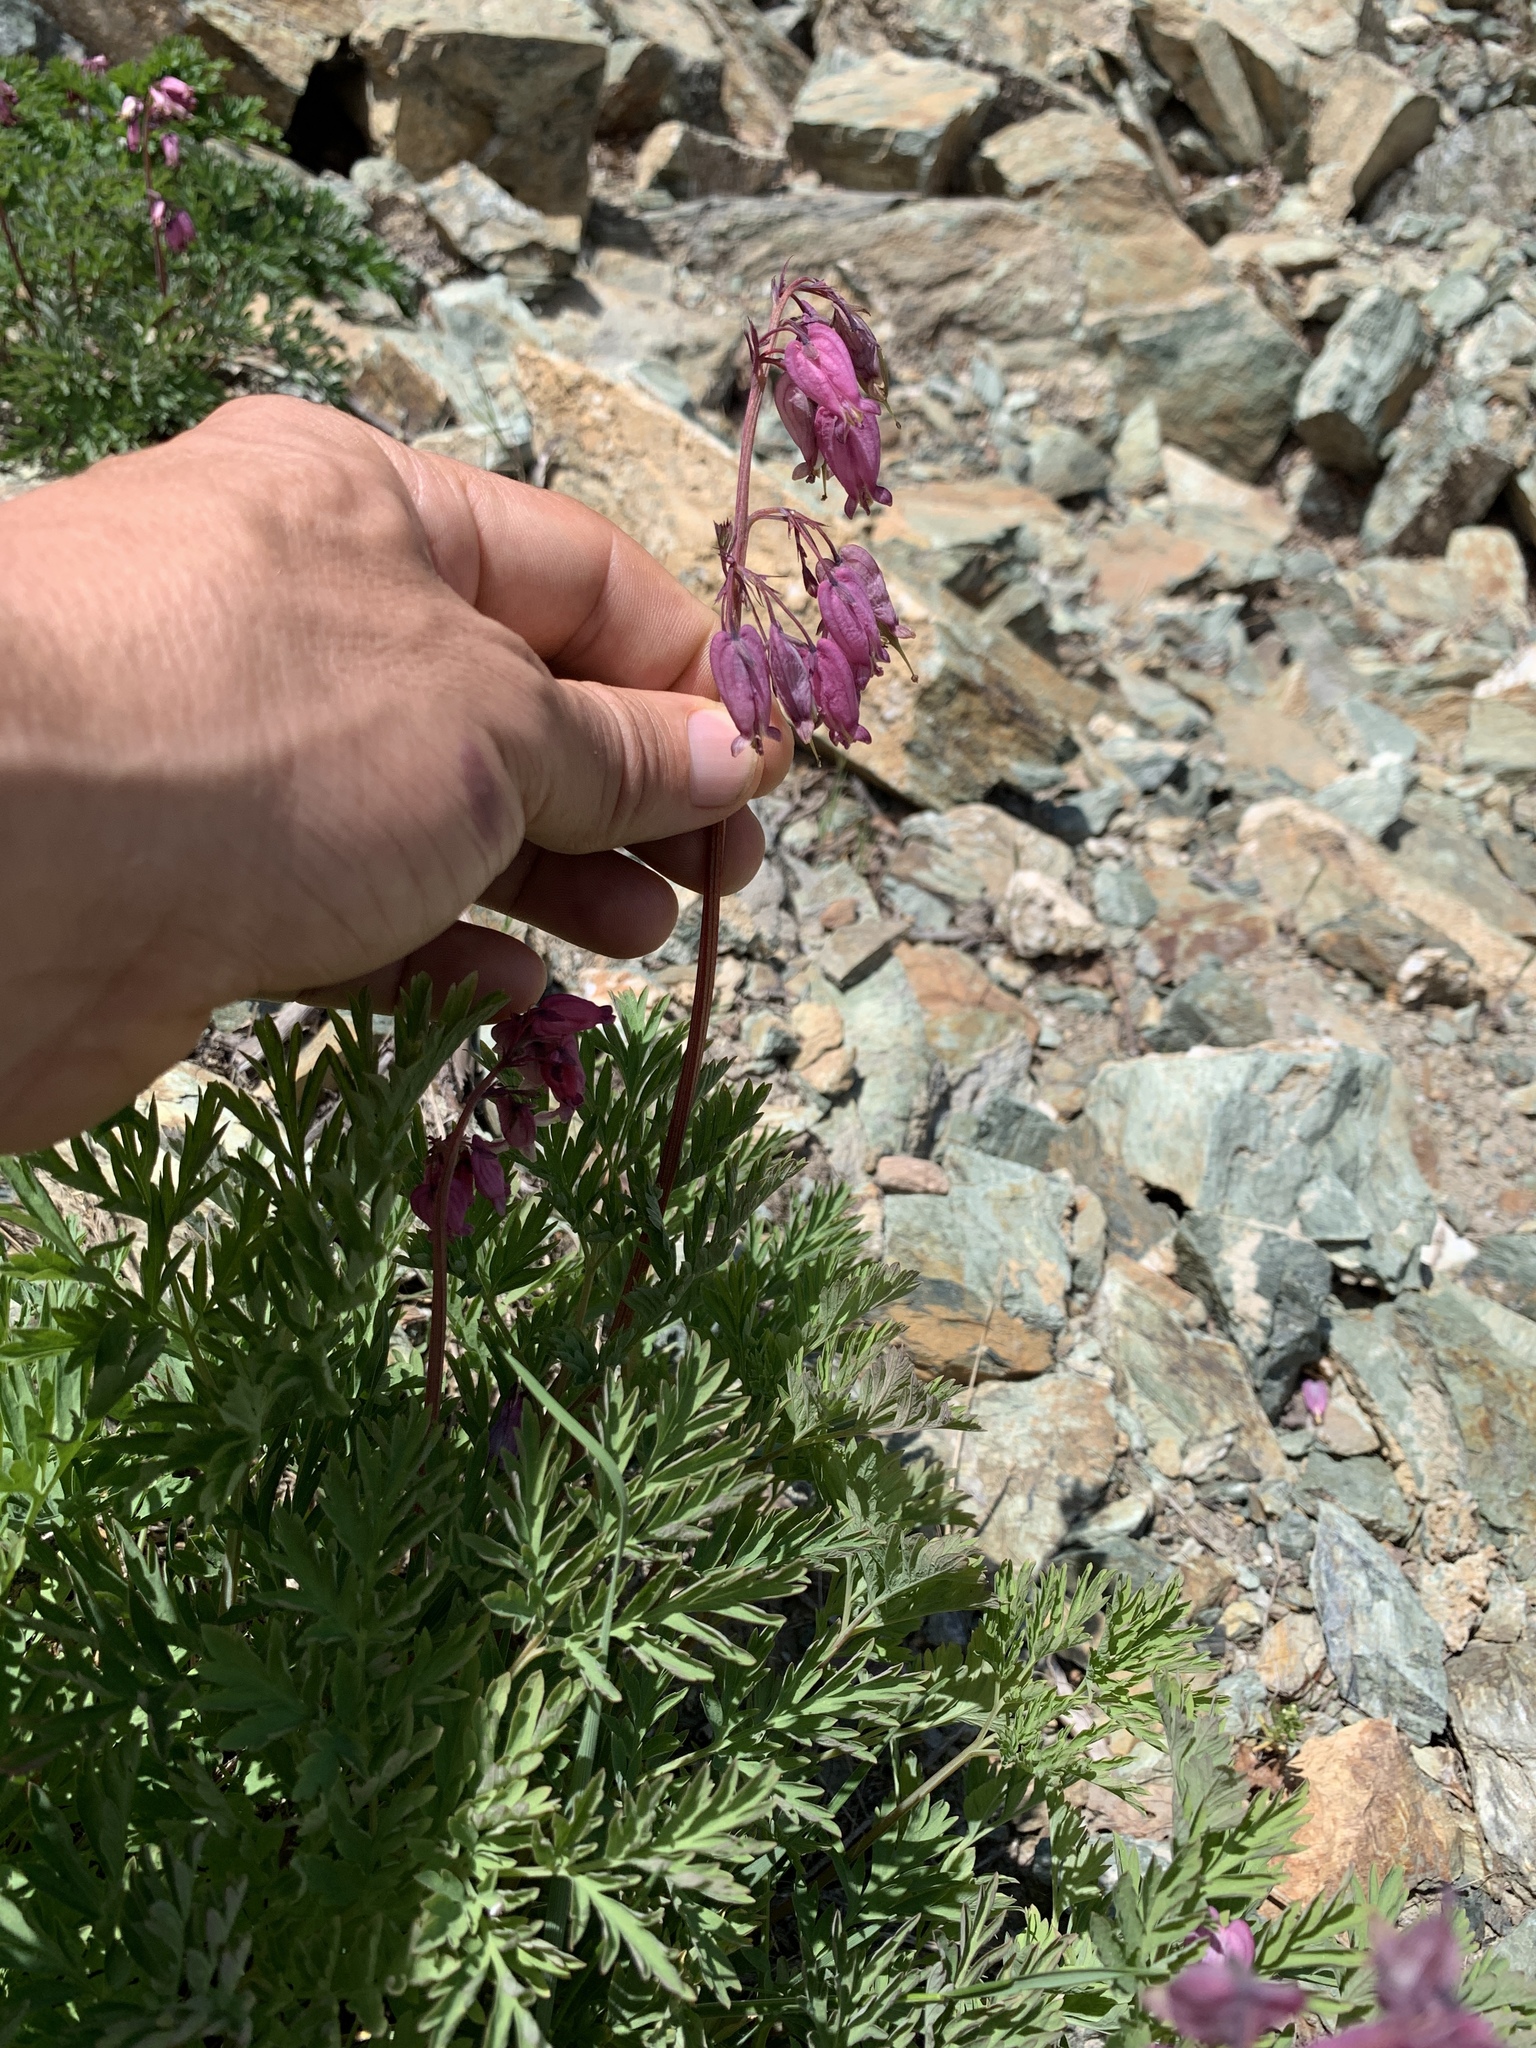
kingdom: Plantae
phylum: Tracheophyta
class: Magnoliopsida
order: Ranunculales
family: Papaveraceae
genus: Dicentra
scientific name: Dicentra formosa
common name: Bleeding-heart
